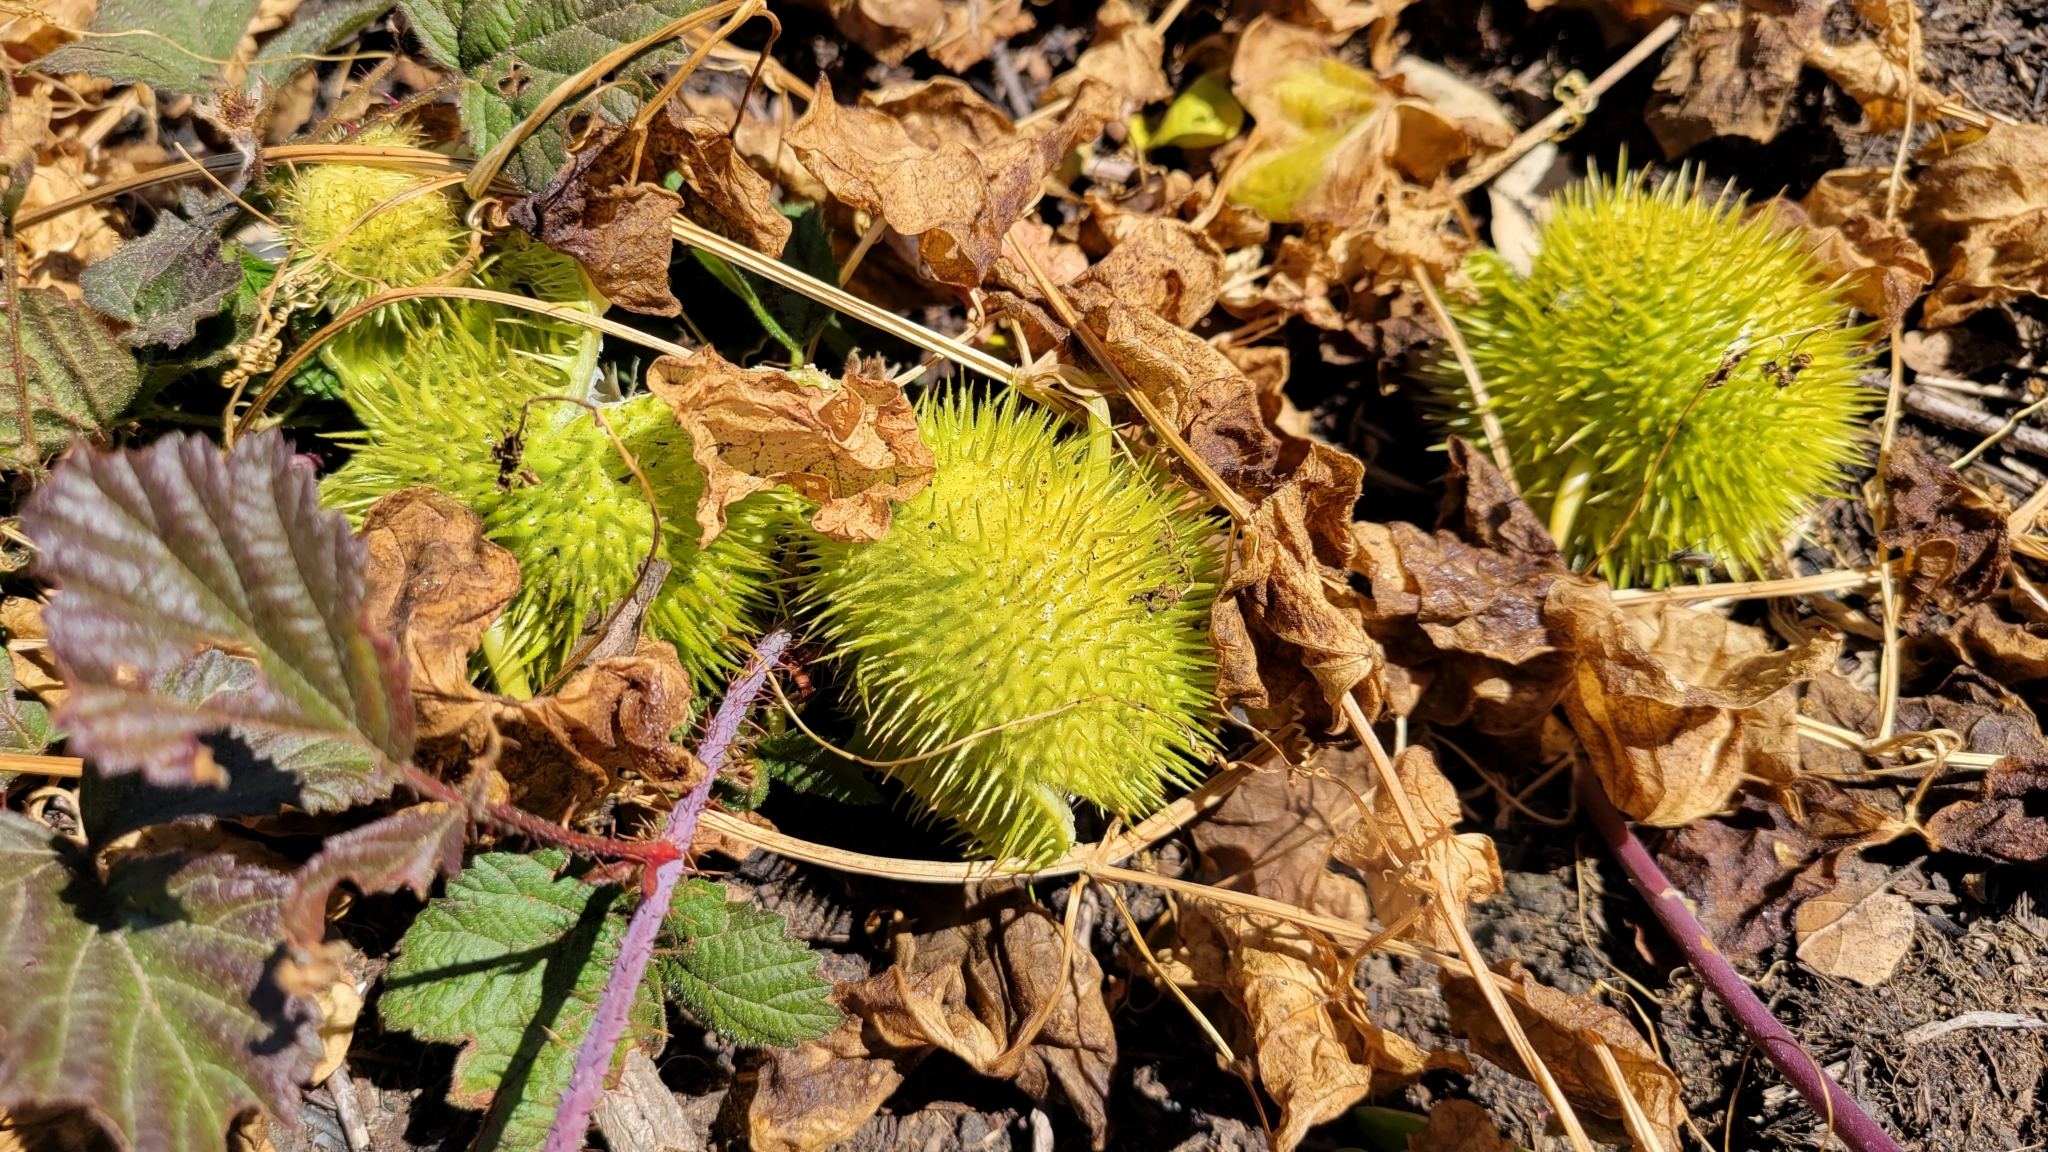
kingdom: Plantae
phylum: Tracheophyta
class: Magnoliopsida
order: Cucurbitales
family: Cucurbitaceae
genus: Marah
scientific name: Marah fabacea
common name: California manroot
